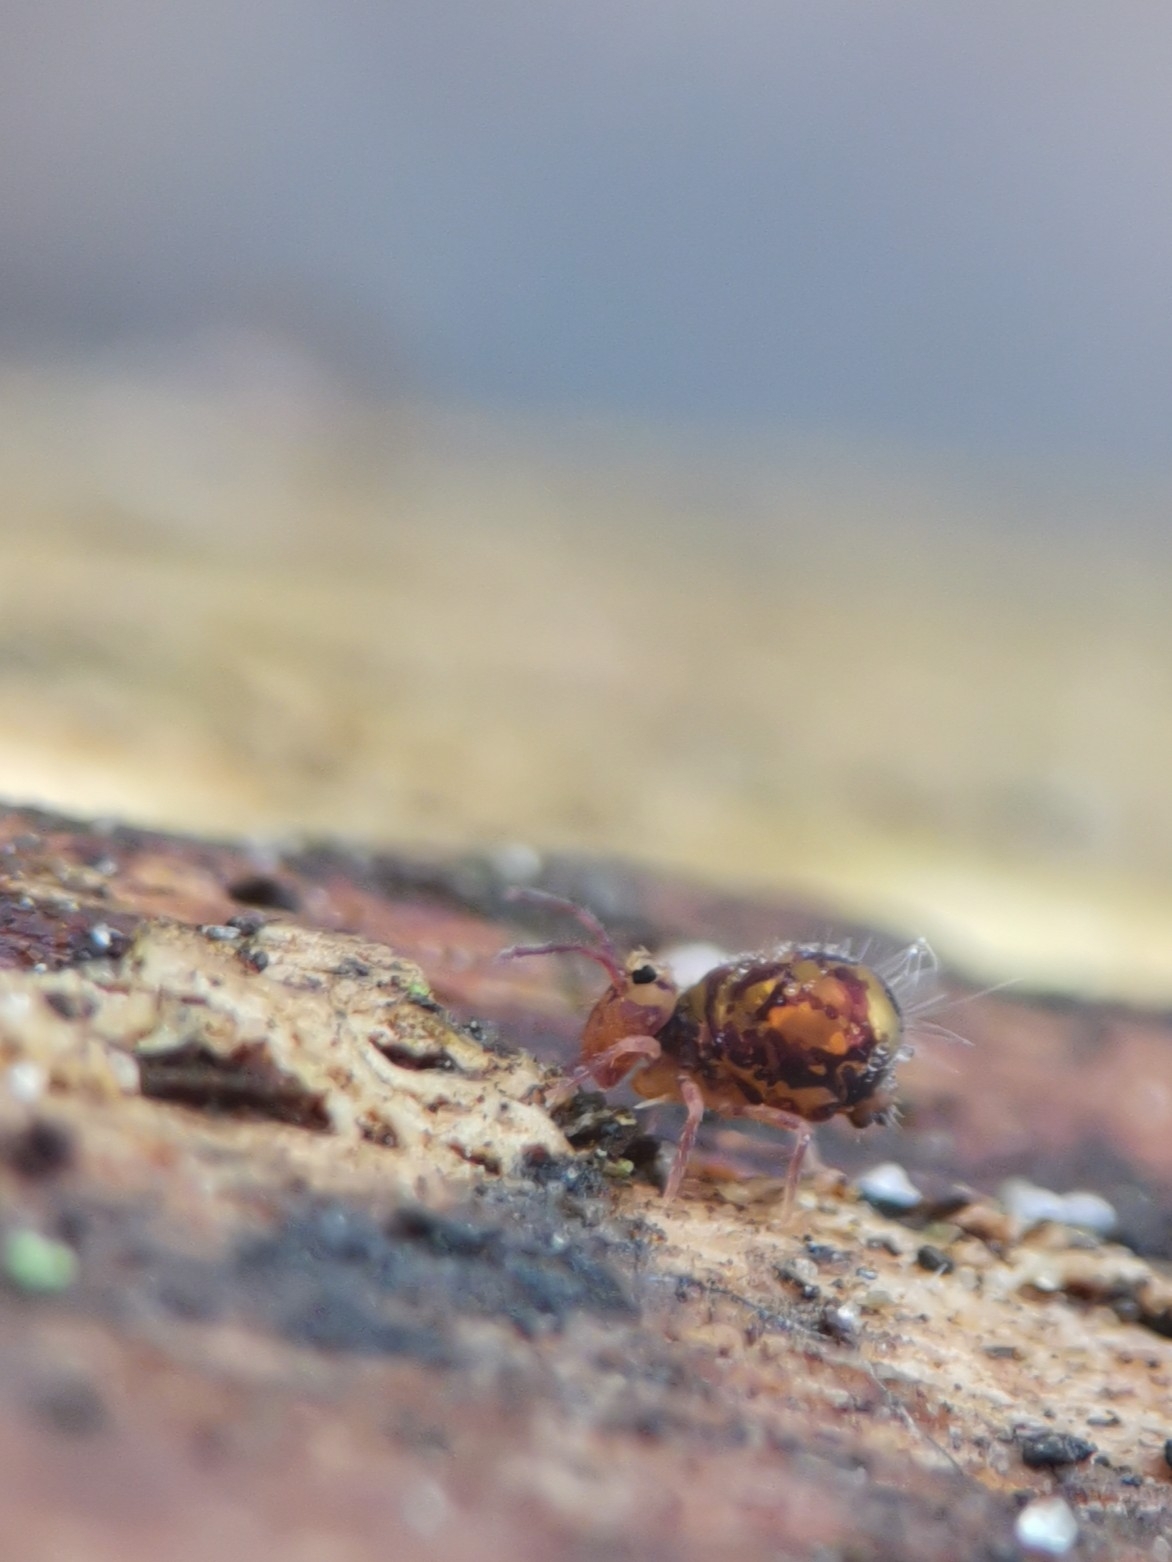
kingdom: Animalia
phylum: Arthropoda
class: Collembola
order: Symphypleona
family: Dicyrtomidae
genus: Dicyrtomina
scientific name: Dicyrtomina ornata
